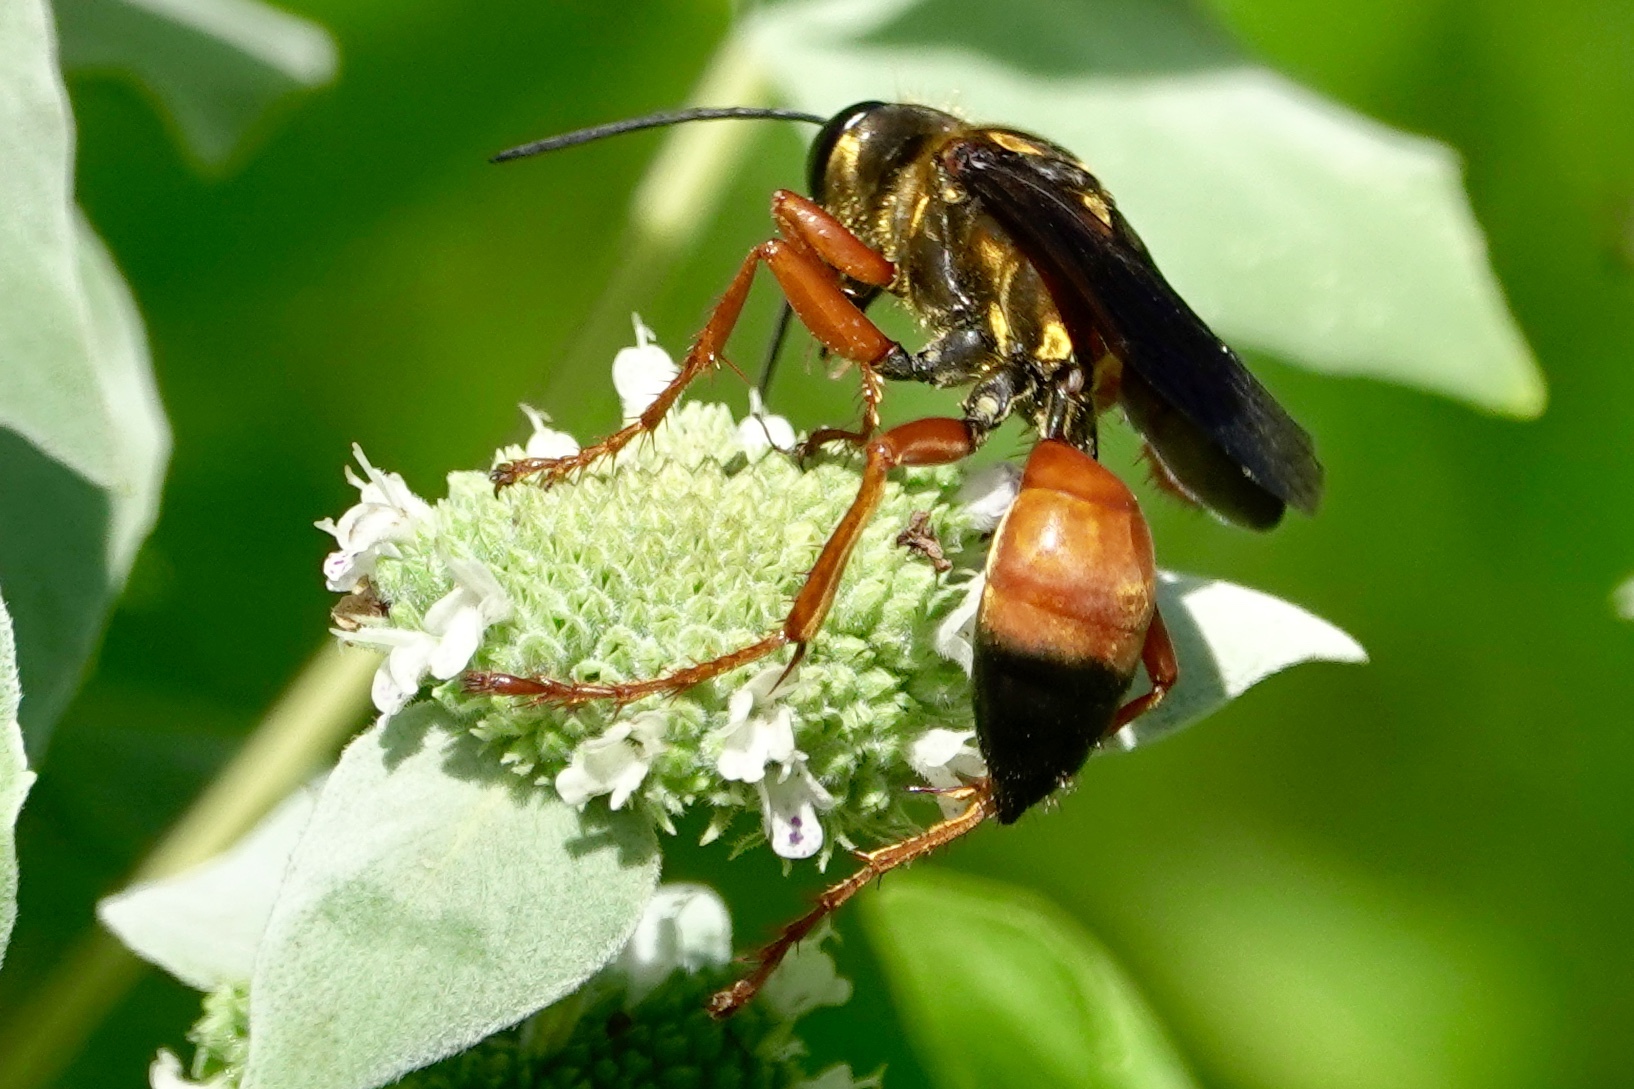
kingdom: Animalia
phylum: Arthropoda
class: Insecta
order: Hymenoptera
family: Sphecidae
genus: Sphex
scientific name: Sphex ichneumoneus
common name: Great golden digger wasp
